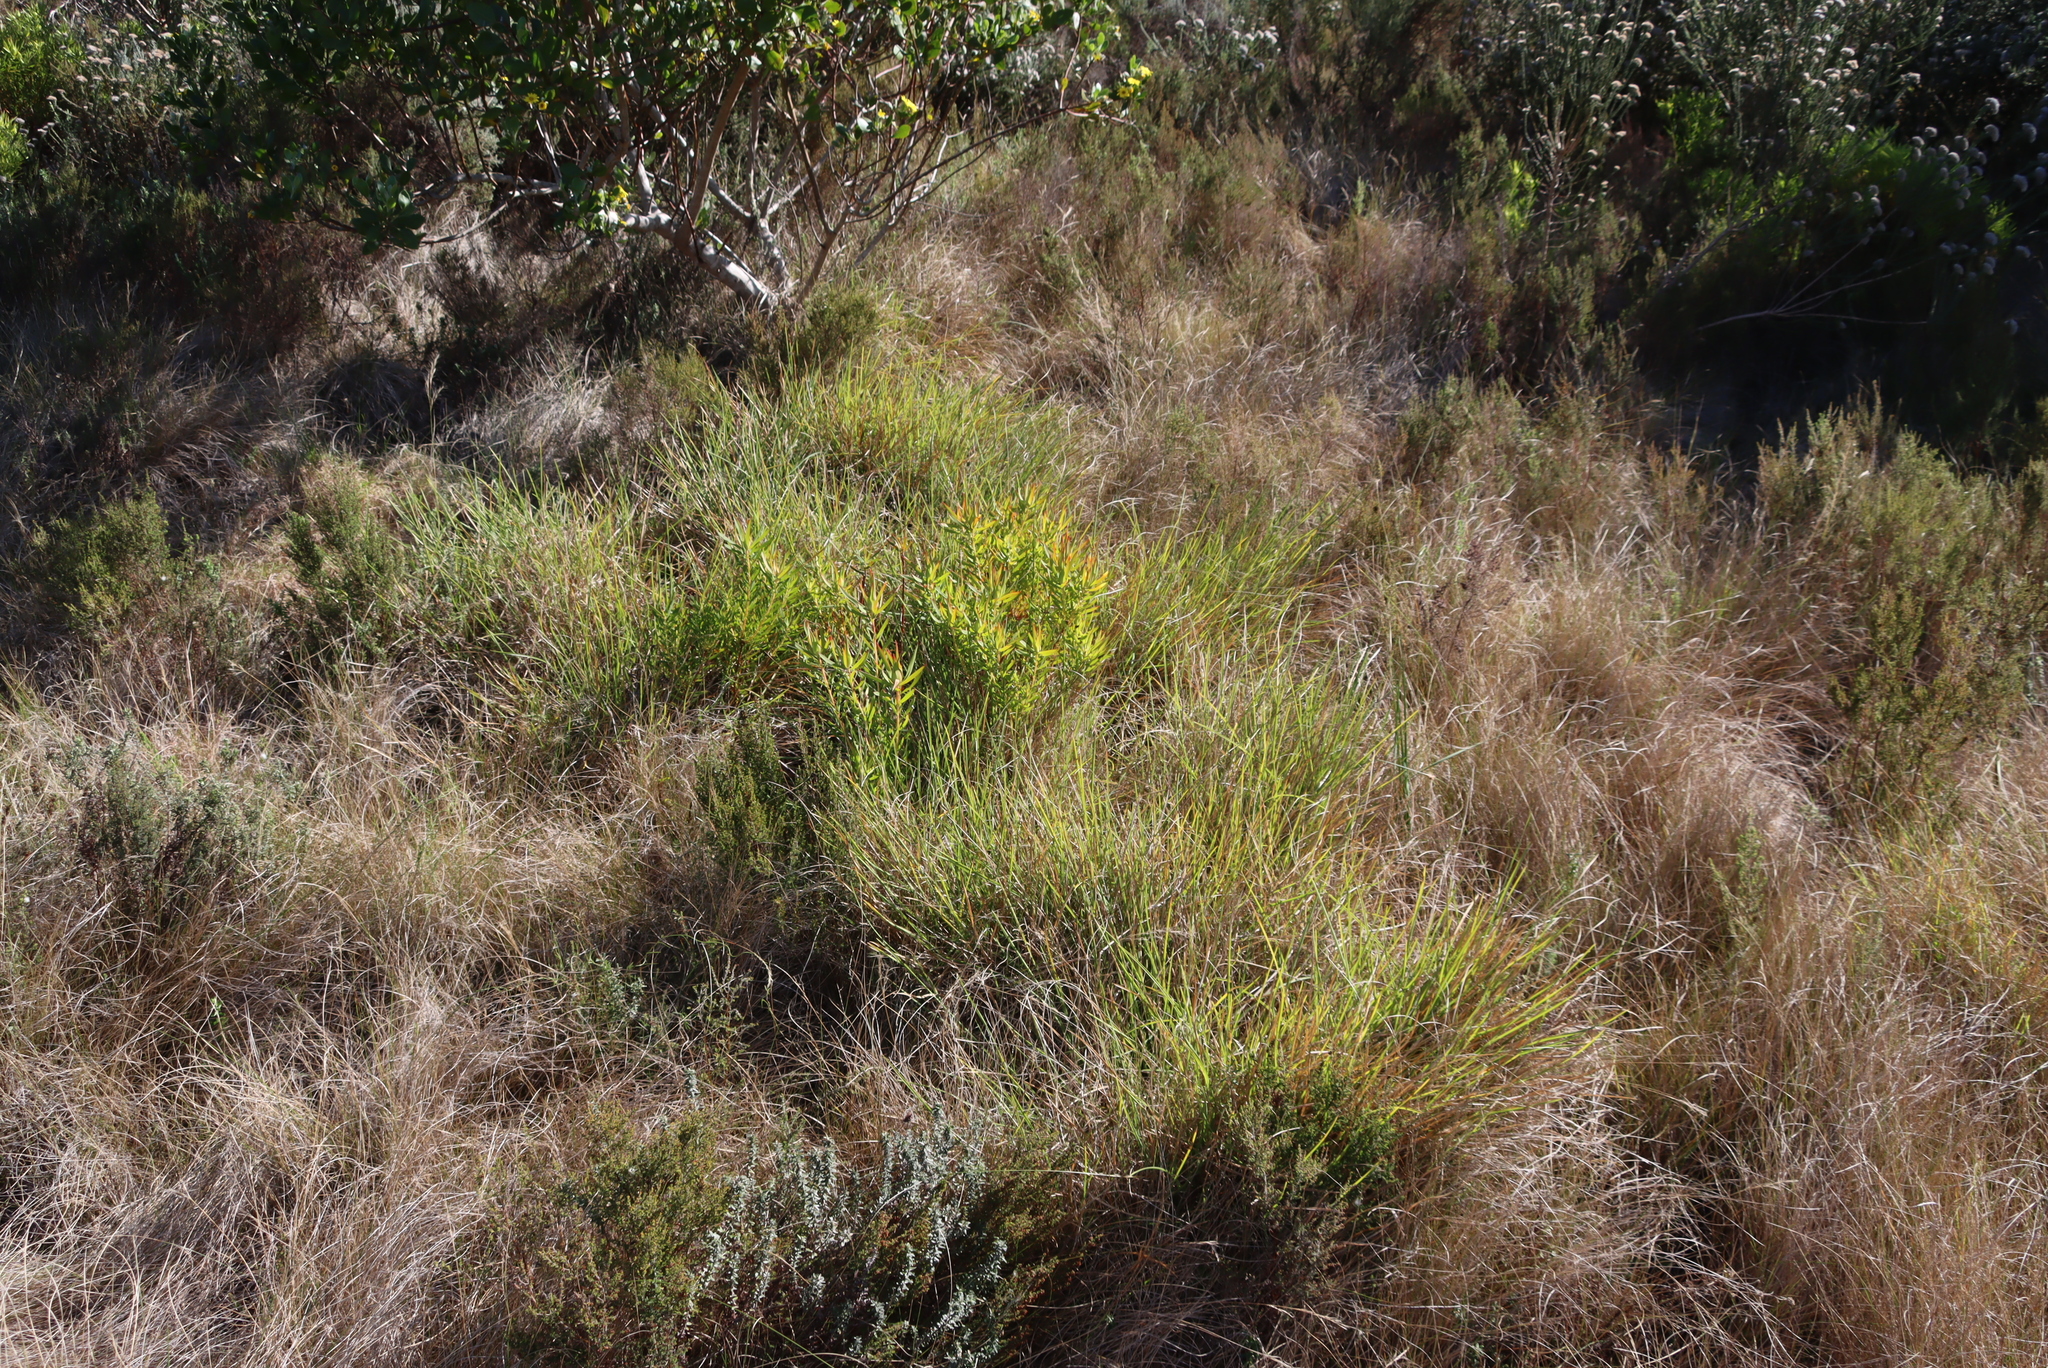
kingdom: Plantae
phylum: Tracheophyta
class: Magnoliopsida
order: Proteales
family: Proteaceae
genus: Leucadendron
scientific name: Leucadendron salignum
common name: Common sunshine conebush
